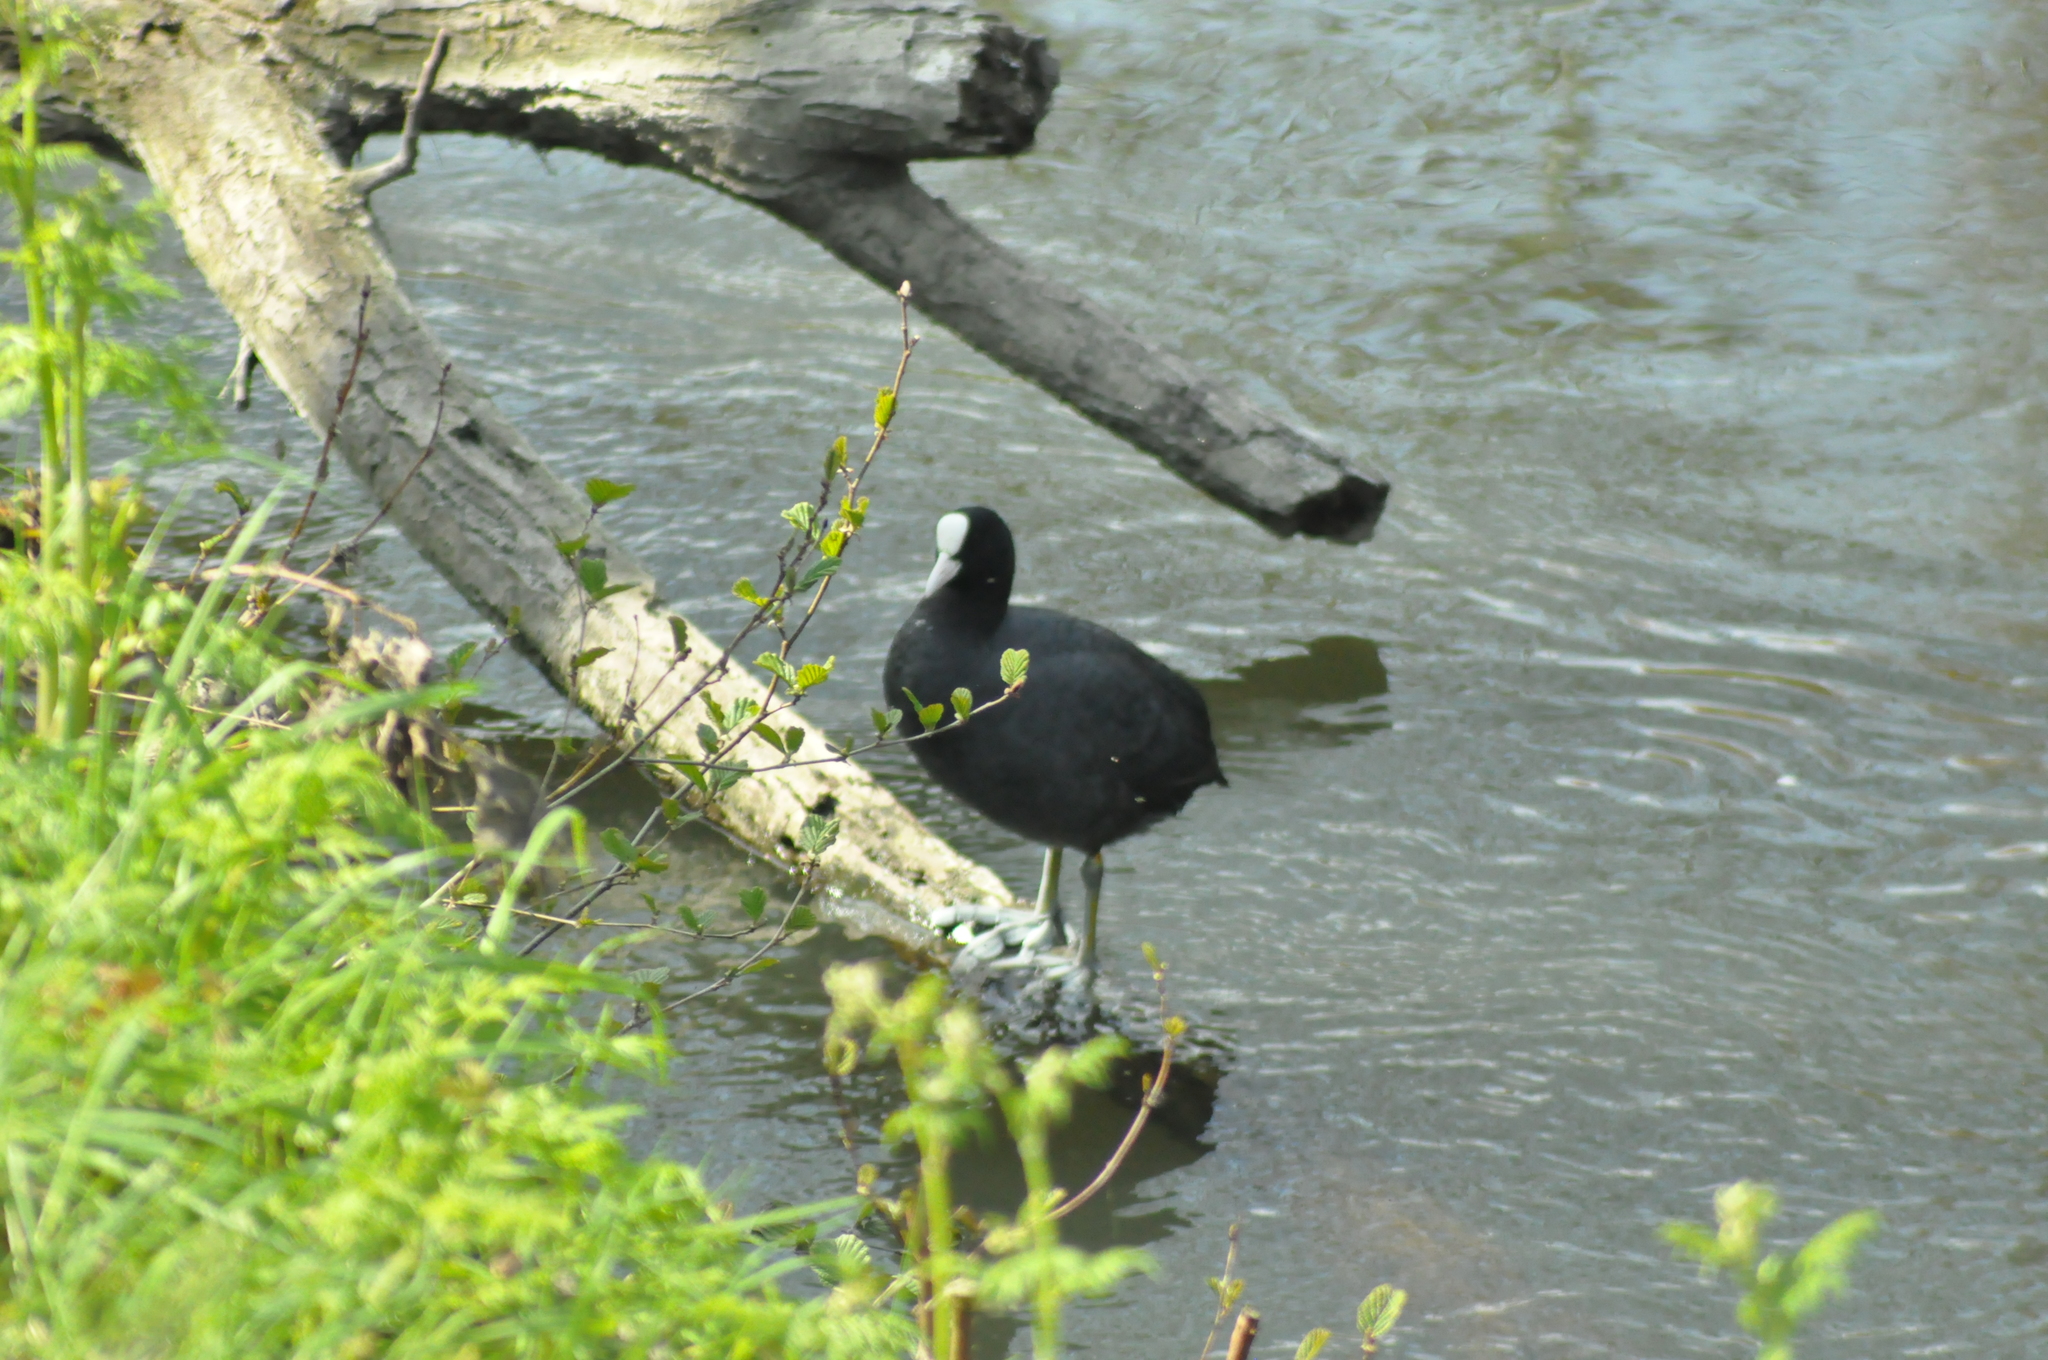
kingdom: Animalia
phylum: Chordata
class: Aves
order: Gruiformes
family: Rallidae
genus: Fulica
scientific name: Fulica atra
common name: Eurasian coot
